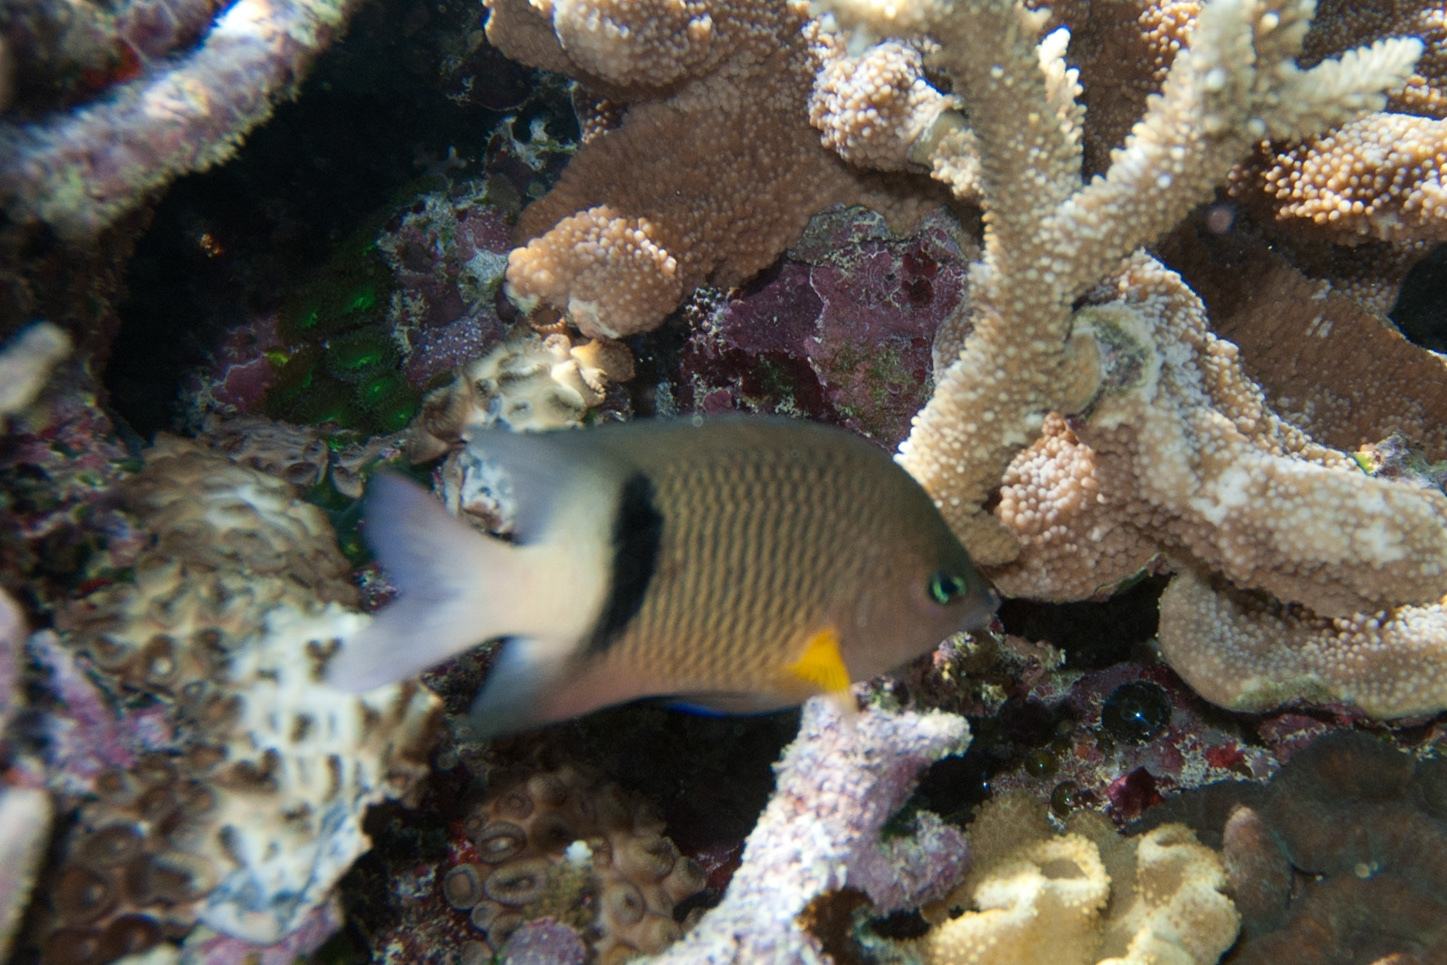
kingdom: Animalia
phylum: Chordata
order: Perciformes
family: Pomacentridae
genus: Plectroglyphidodon
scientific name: Plectroglyphidodon dickii
